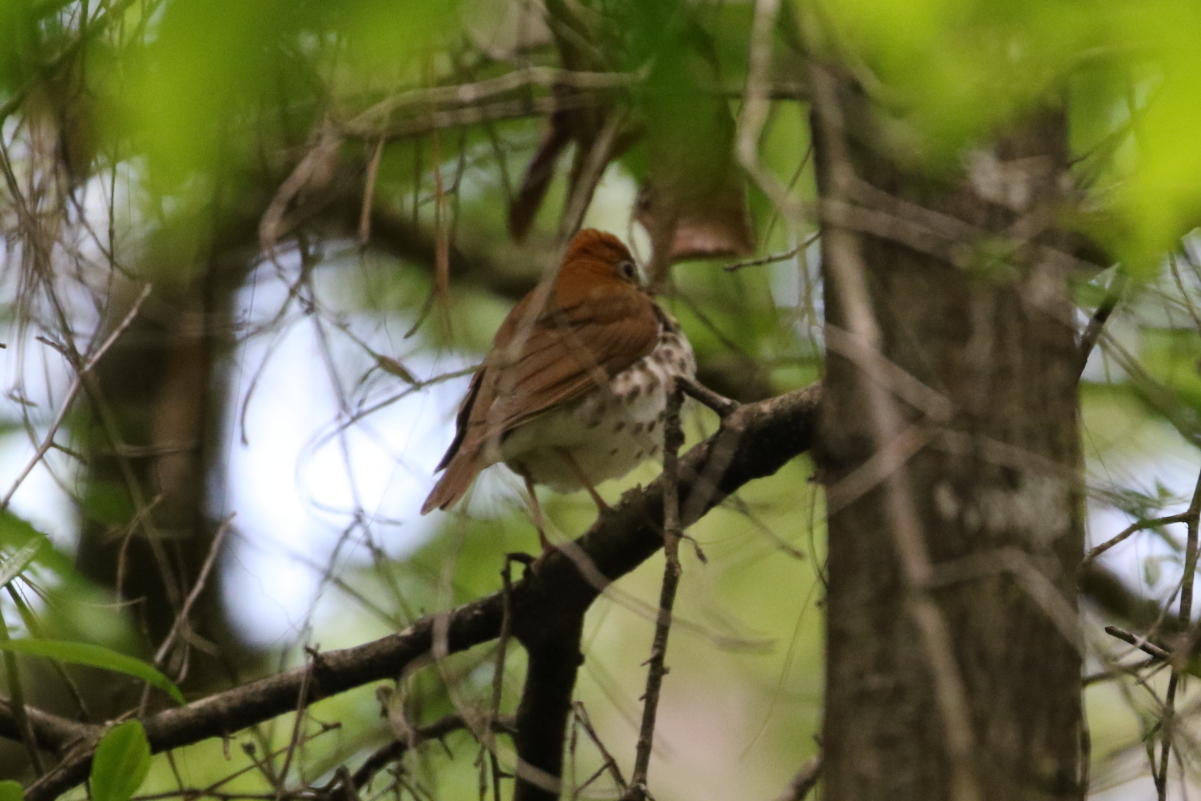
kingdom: Animalia
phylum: Chordata
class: Aves
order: Passeriformes
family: Turdidae
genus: Hylocichla
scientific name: Hylocichla mustelina
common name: Wood thrush
